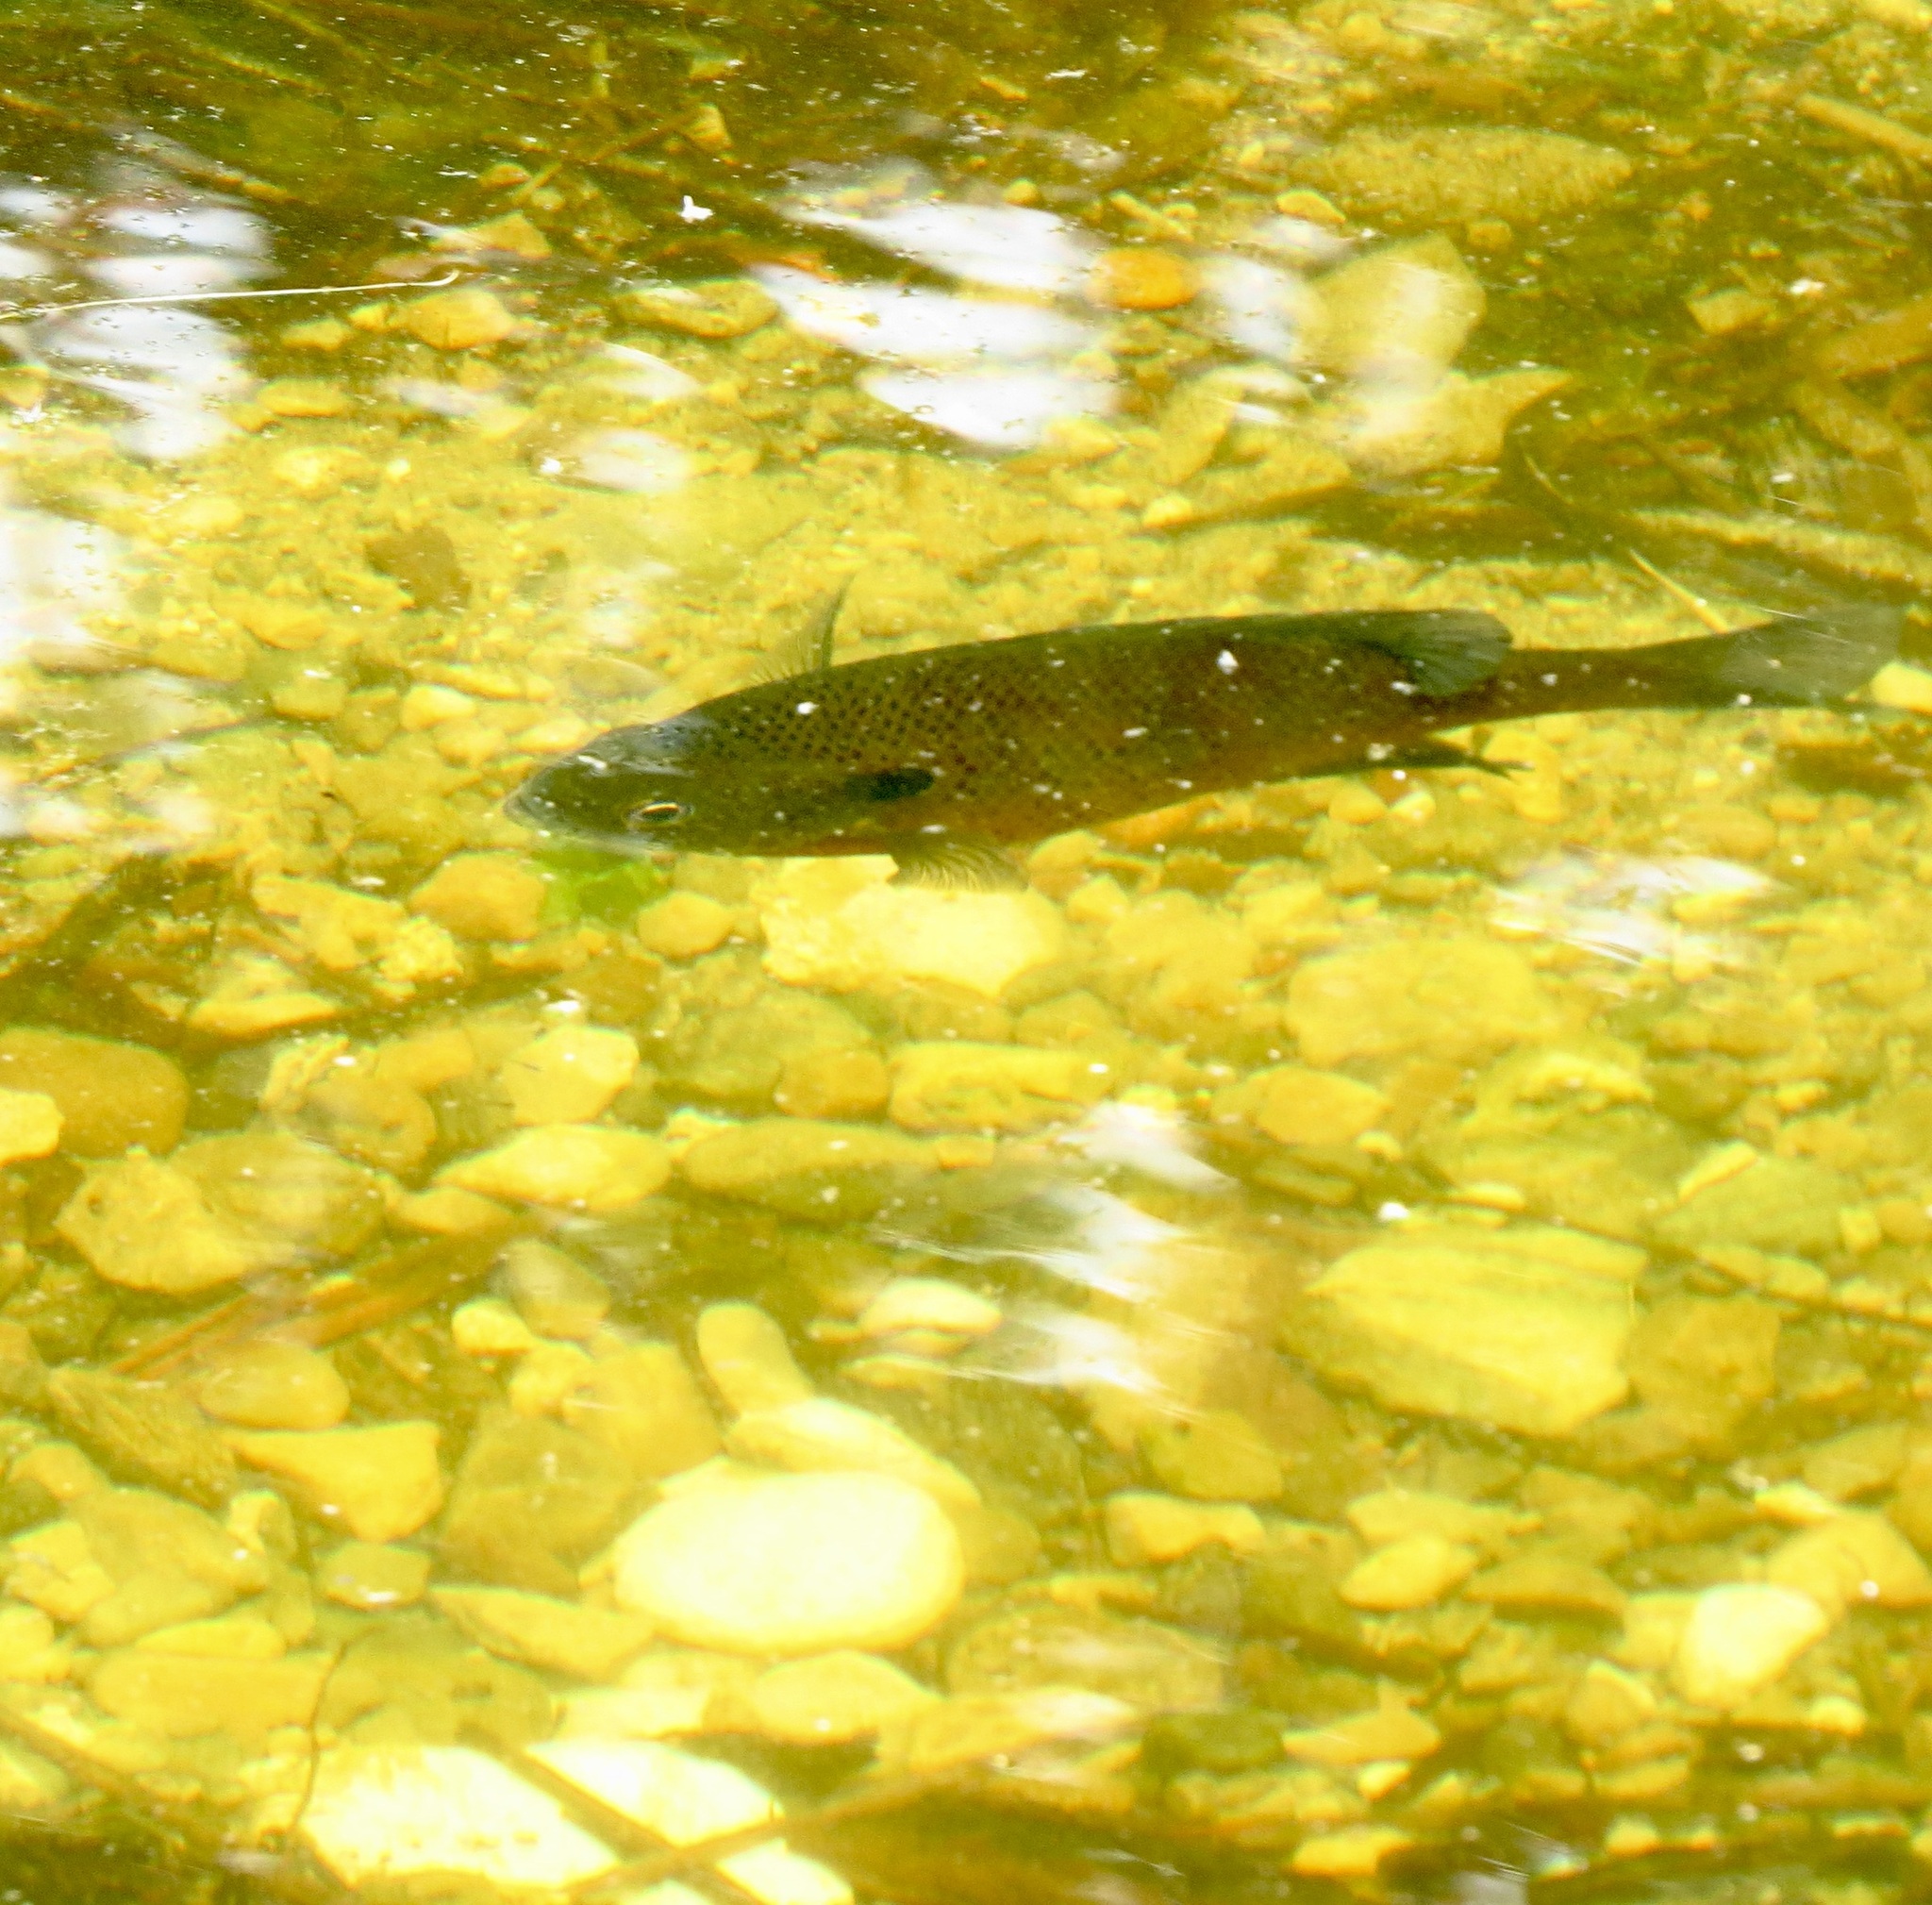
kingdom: Animalia
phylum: Chordata
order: Perciformes
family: Centrarchidae
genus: Lepomis
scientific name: Lepomis macrochirus
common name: Bluegill
